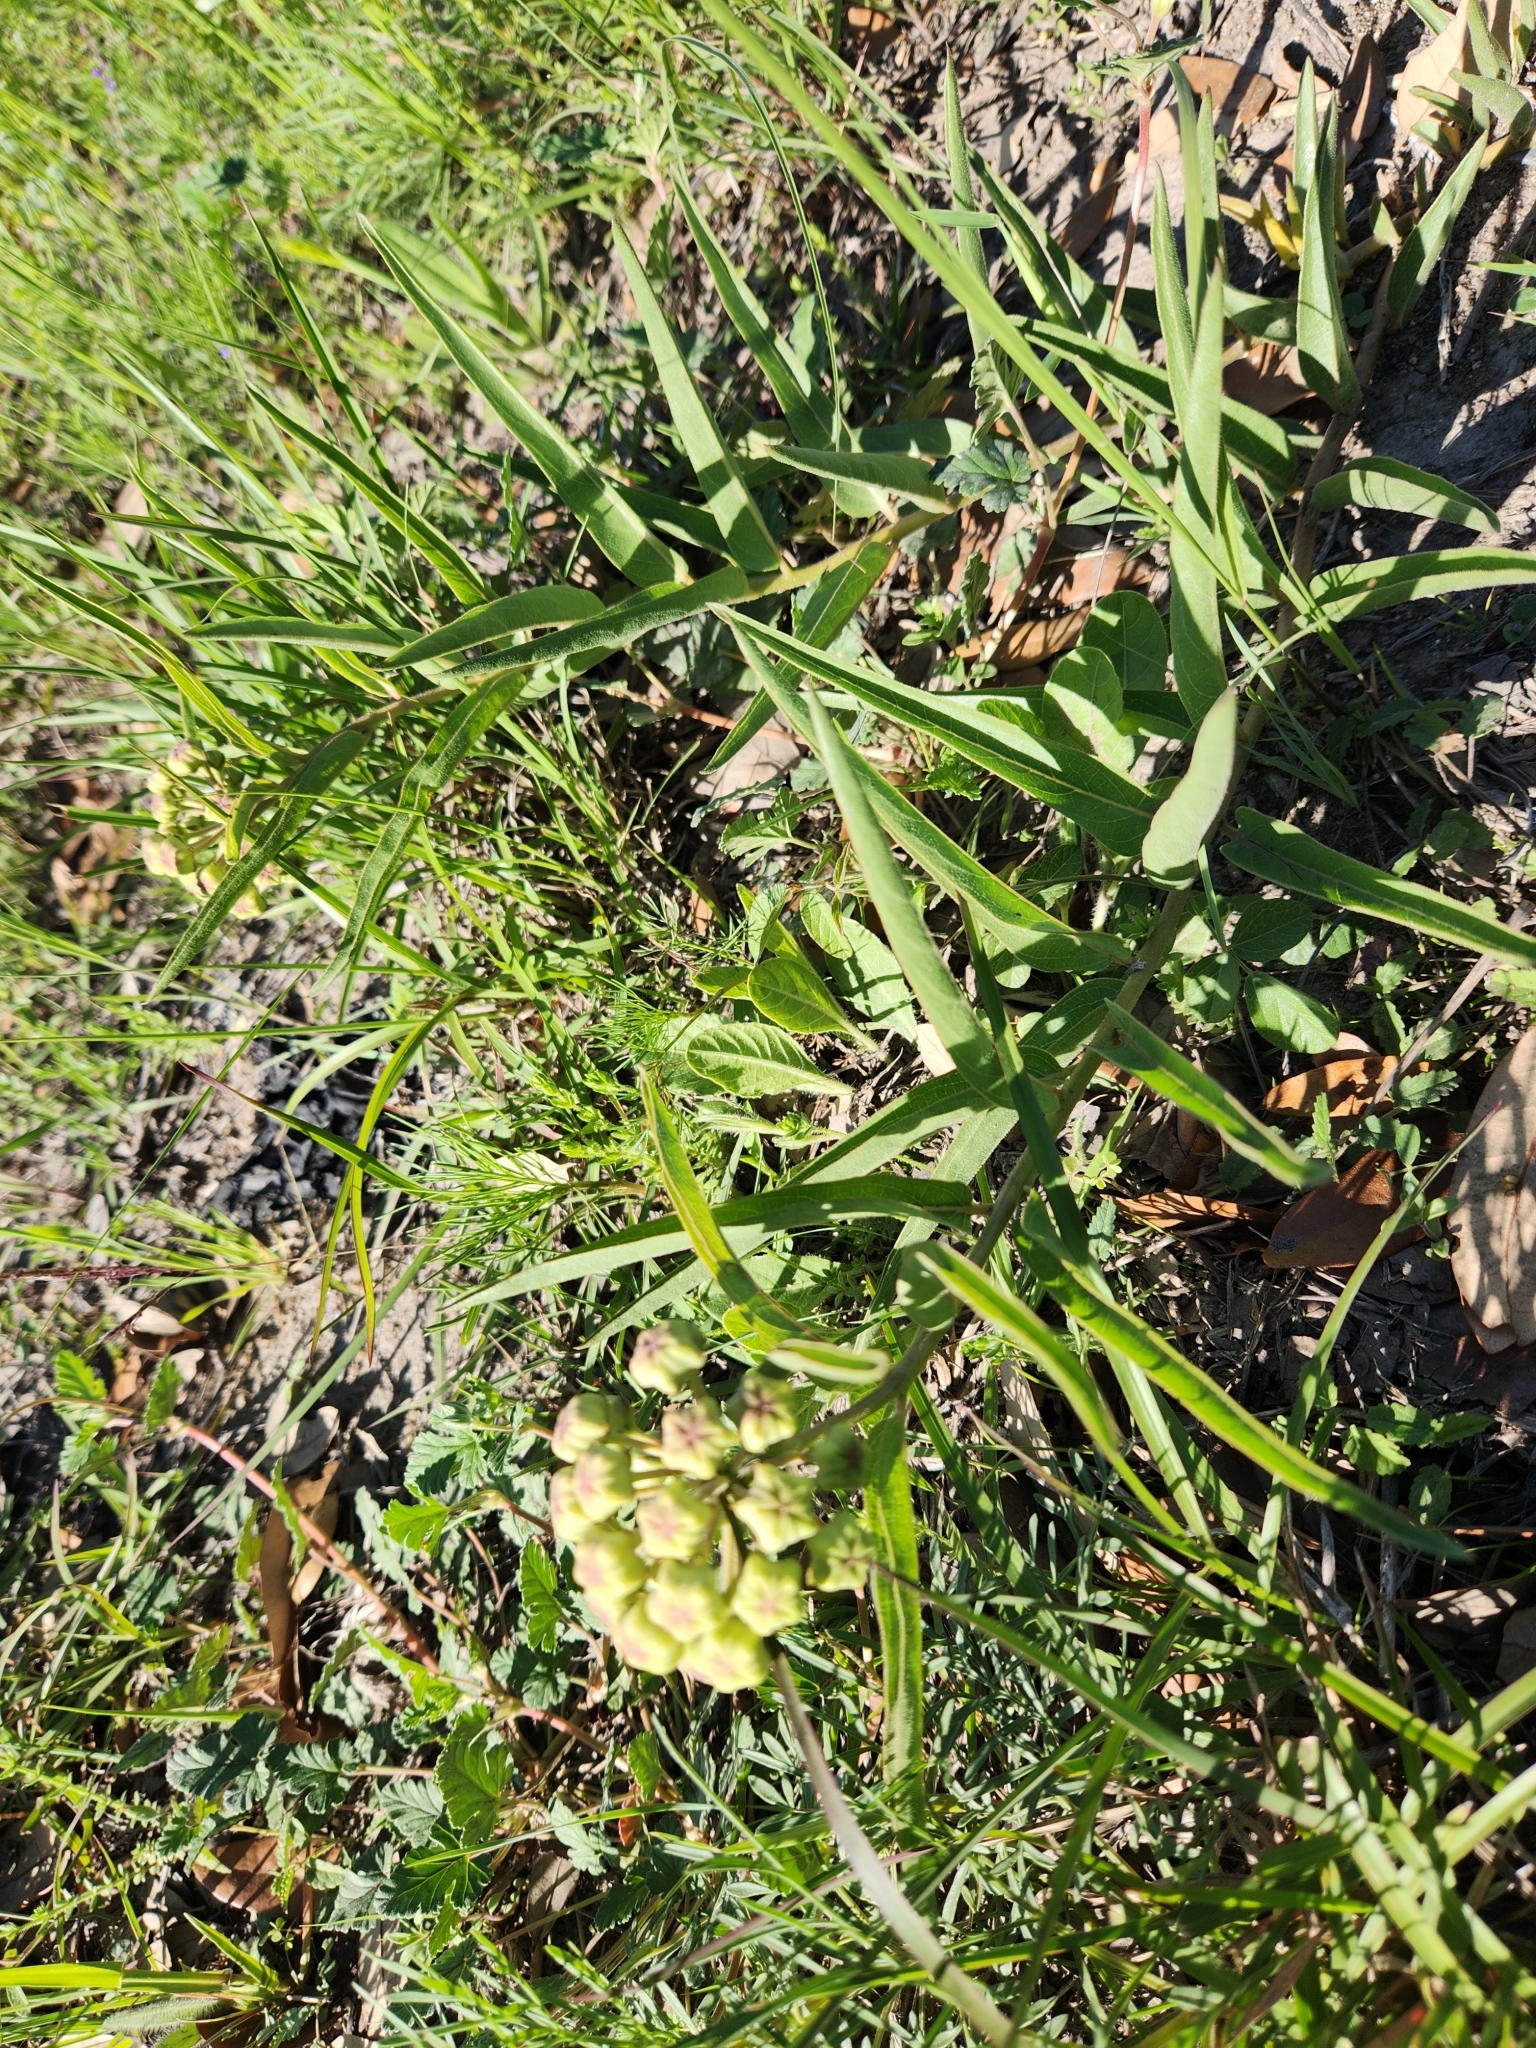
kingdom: Plantae
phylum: Tracheophyta
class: Magnoliopsida
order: Gentianales
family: Apocynaceae
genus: Asclepias
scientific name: Asclepias asperula
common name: Antelope horns
